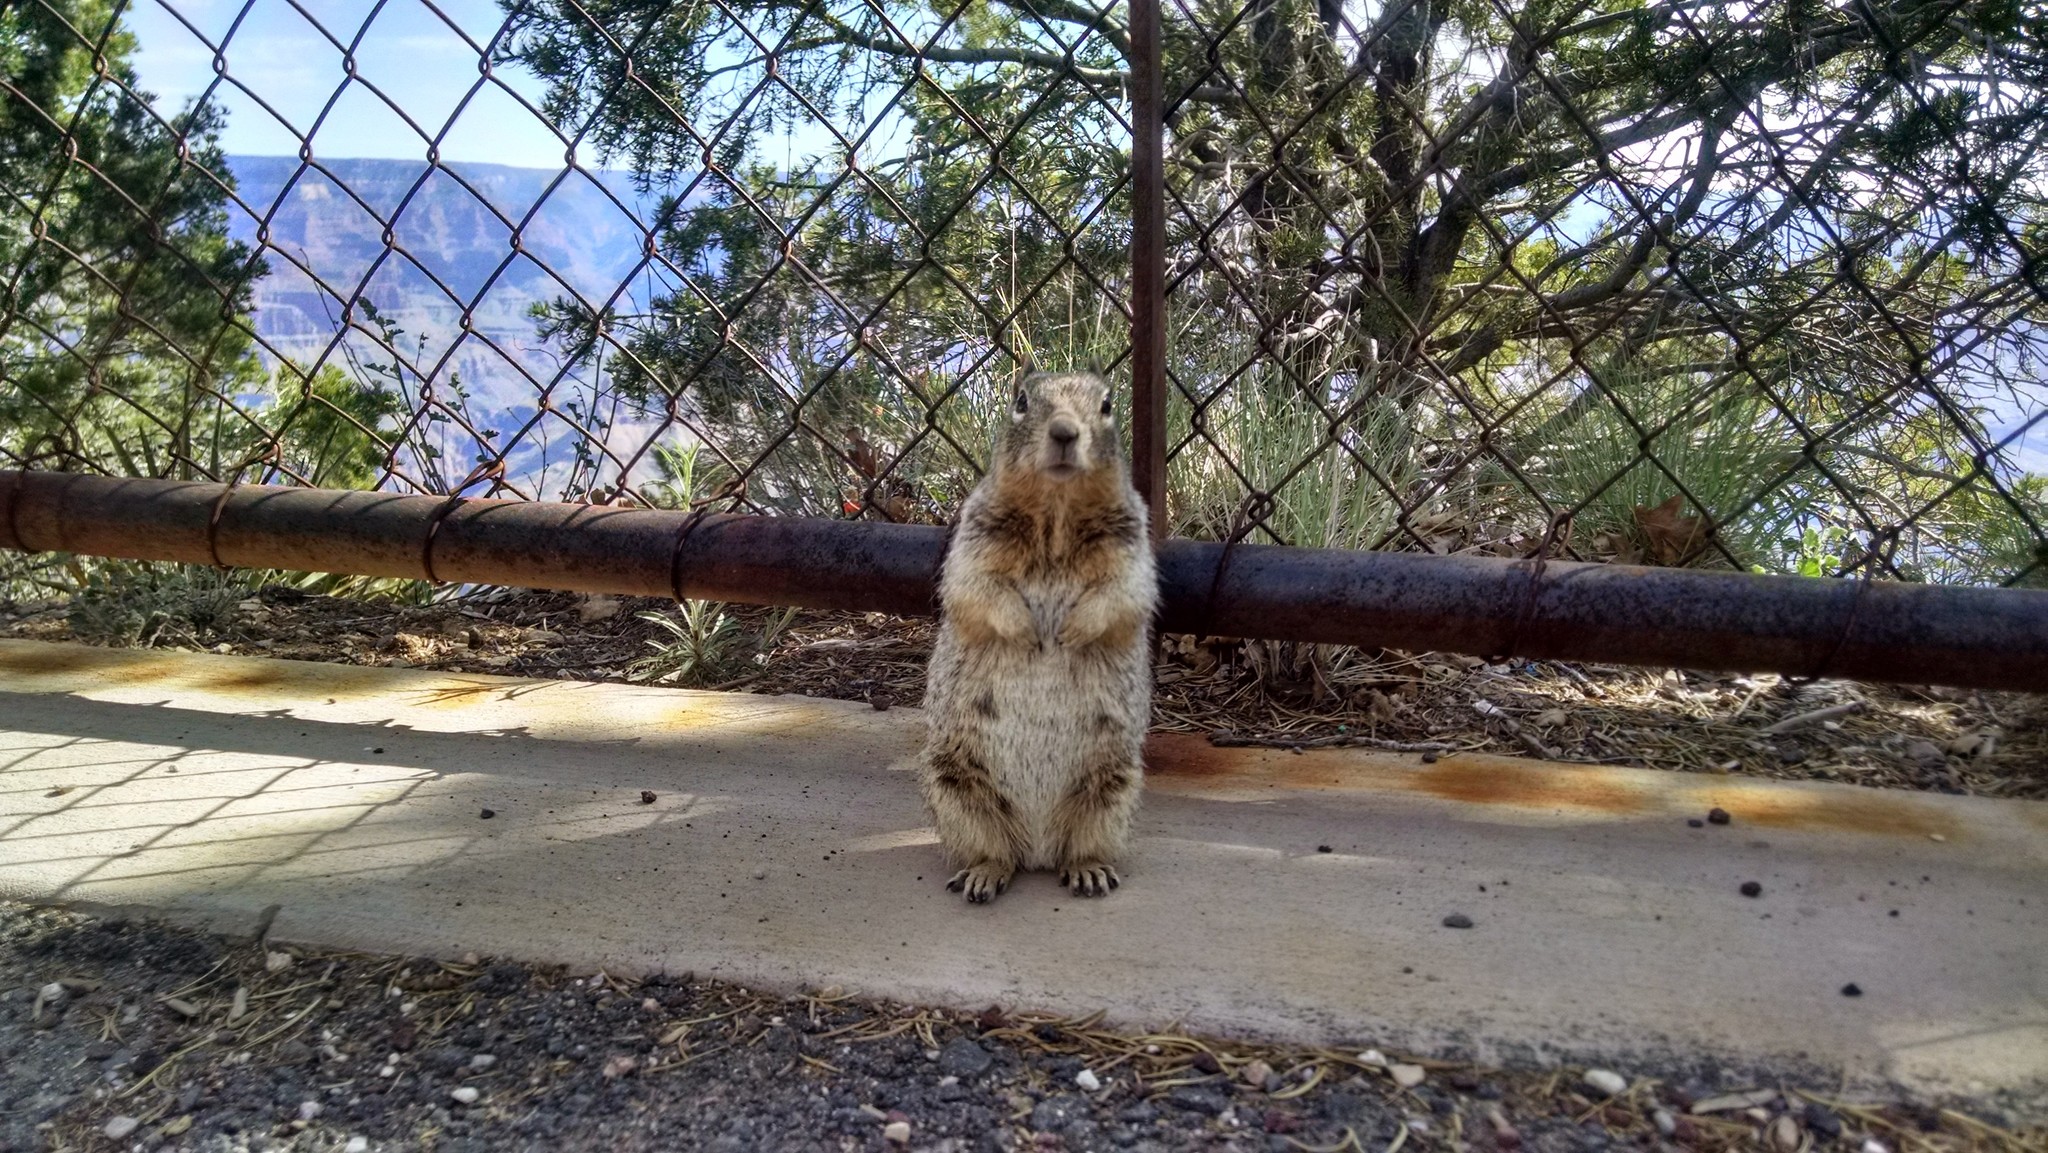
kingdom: Animalia
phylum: Chordata
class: Mammalia
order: Rodentia
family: Sciuridae
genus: Otospermophilus
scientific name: Otospermophilus variegatus
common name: Rock squirrel
